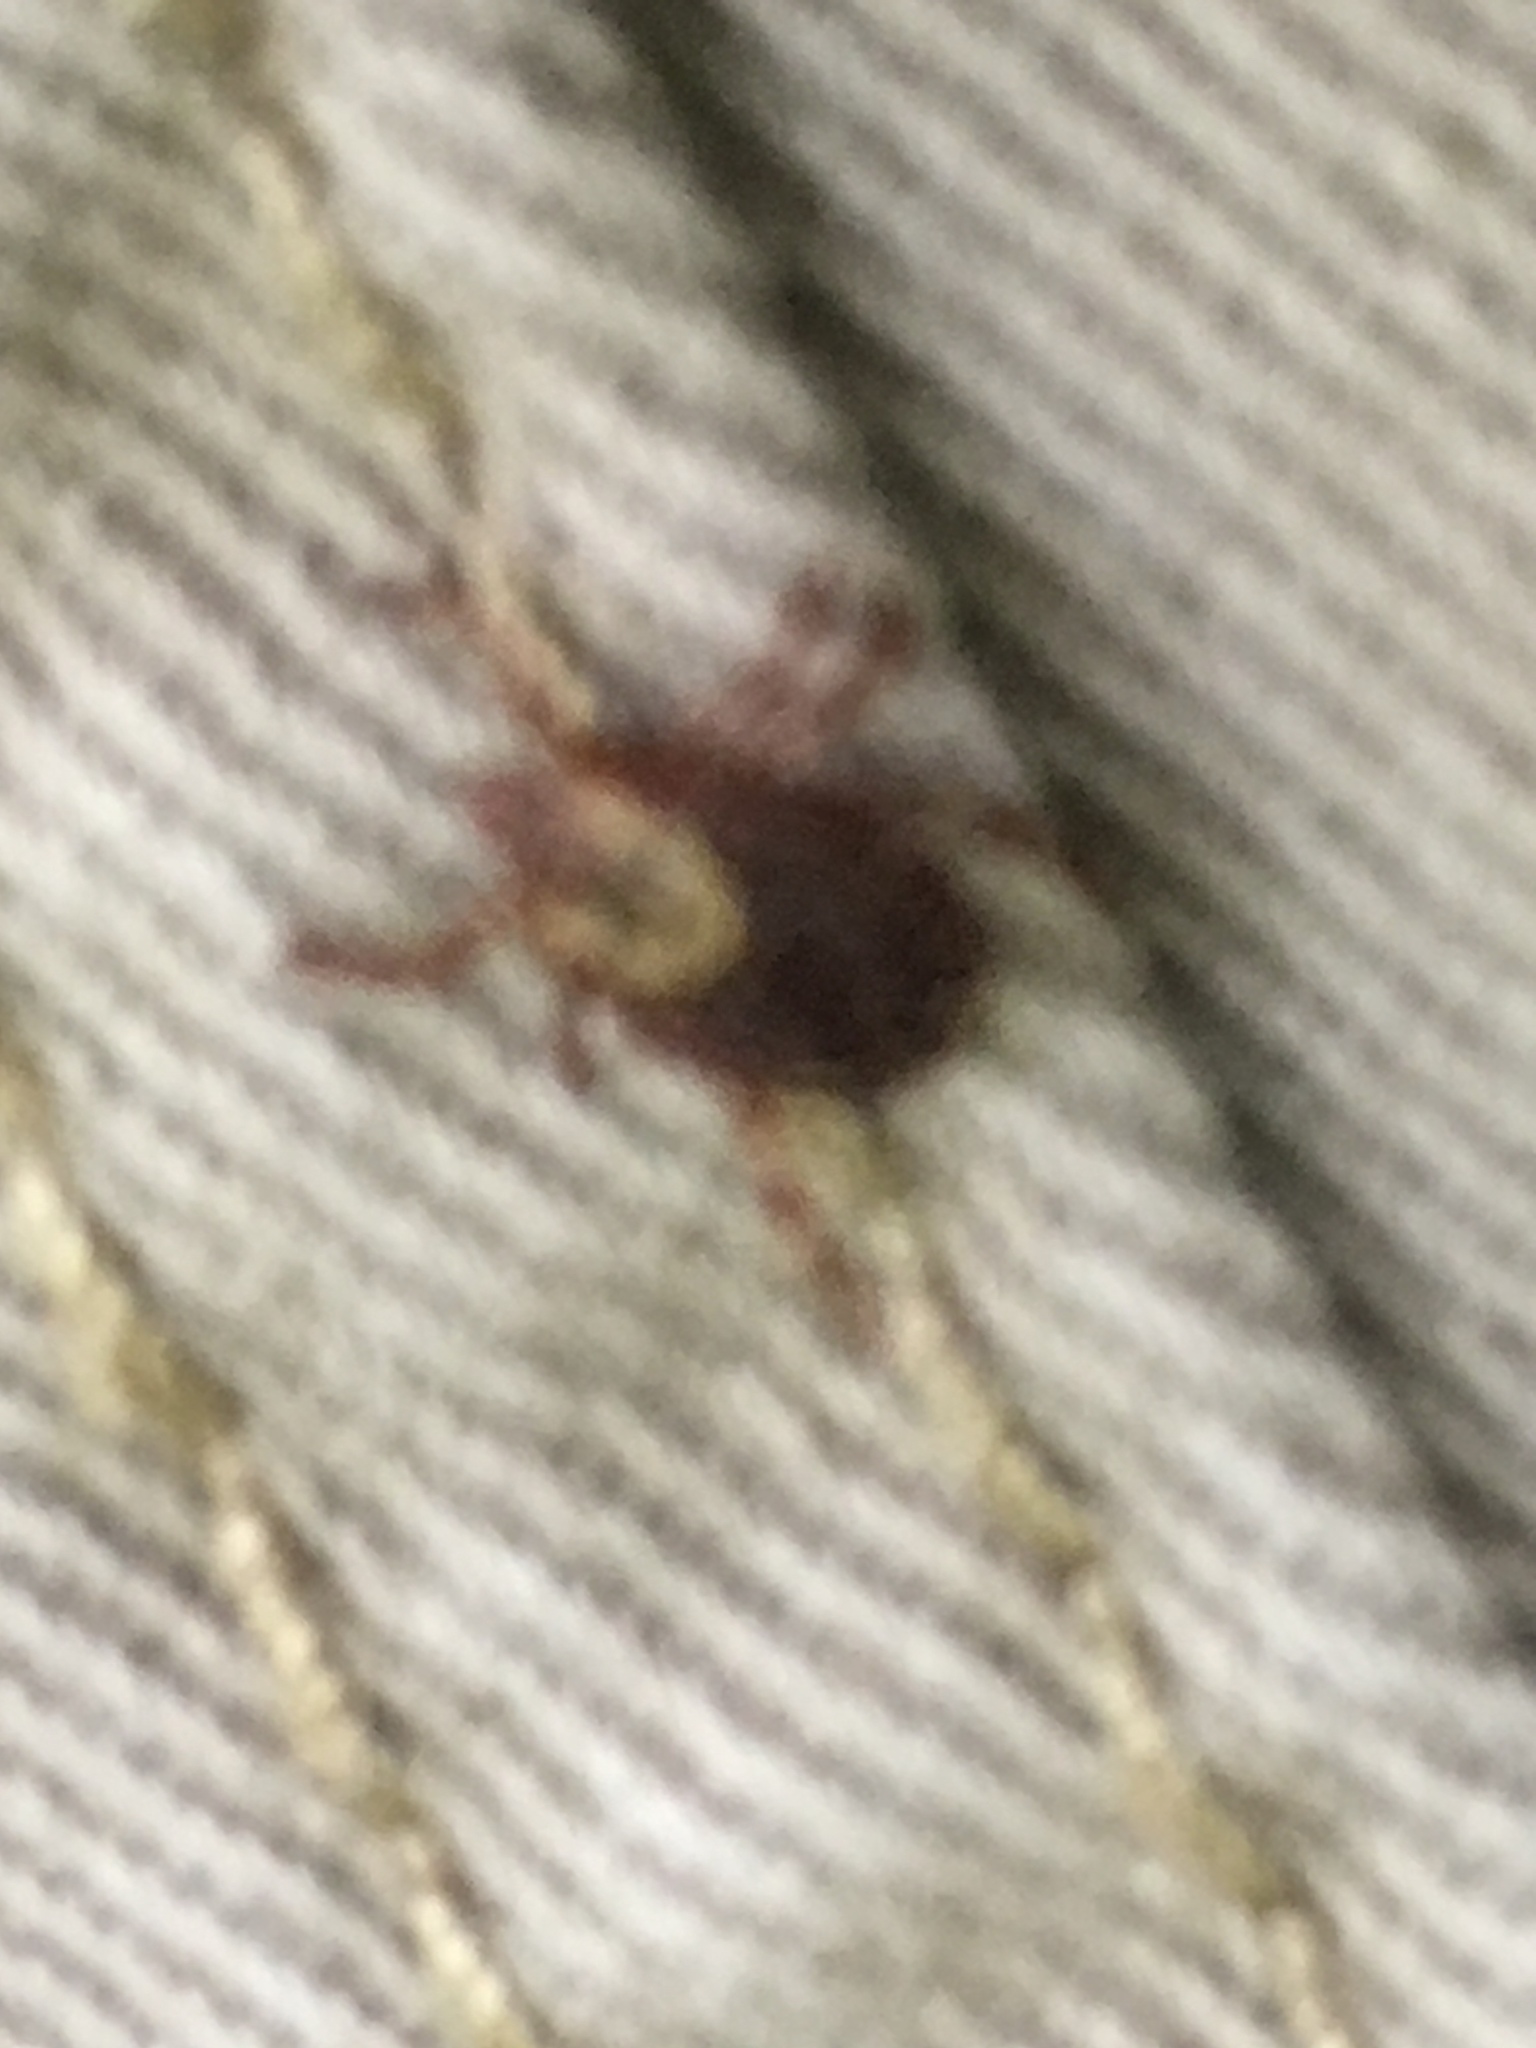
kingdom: Animalia
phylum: Arthropoda
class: Arachnida
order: Ixodida
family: Ixodidae
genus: Dermacentor
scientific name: Dermacentor variabilis
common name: American dog tick
